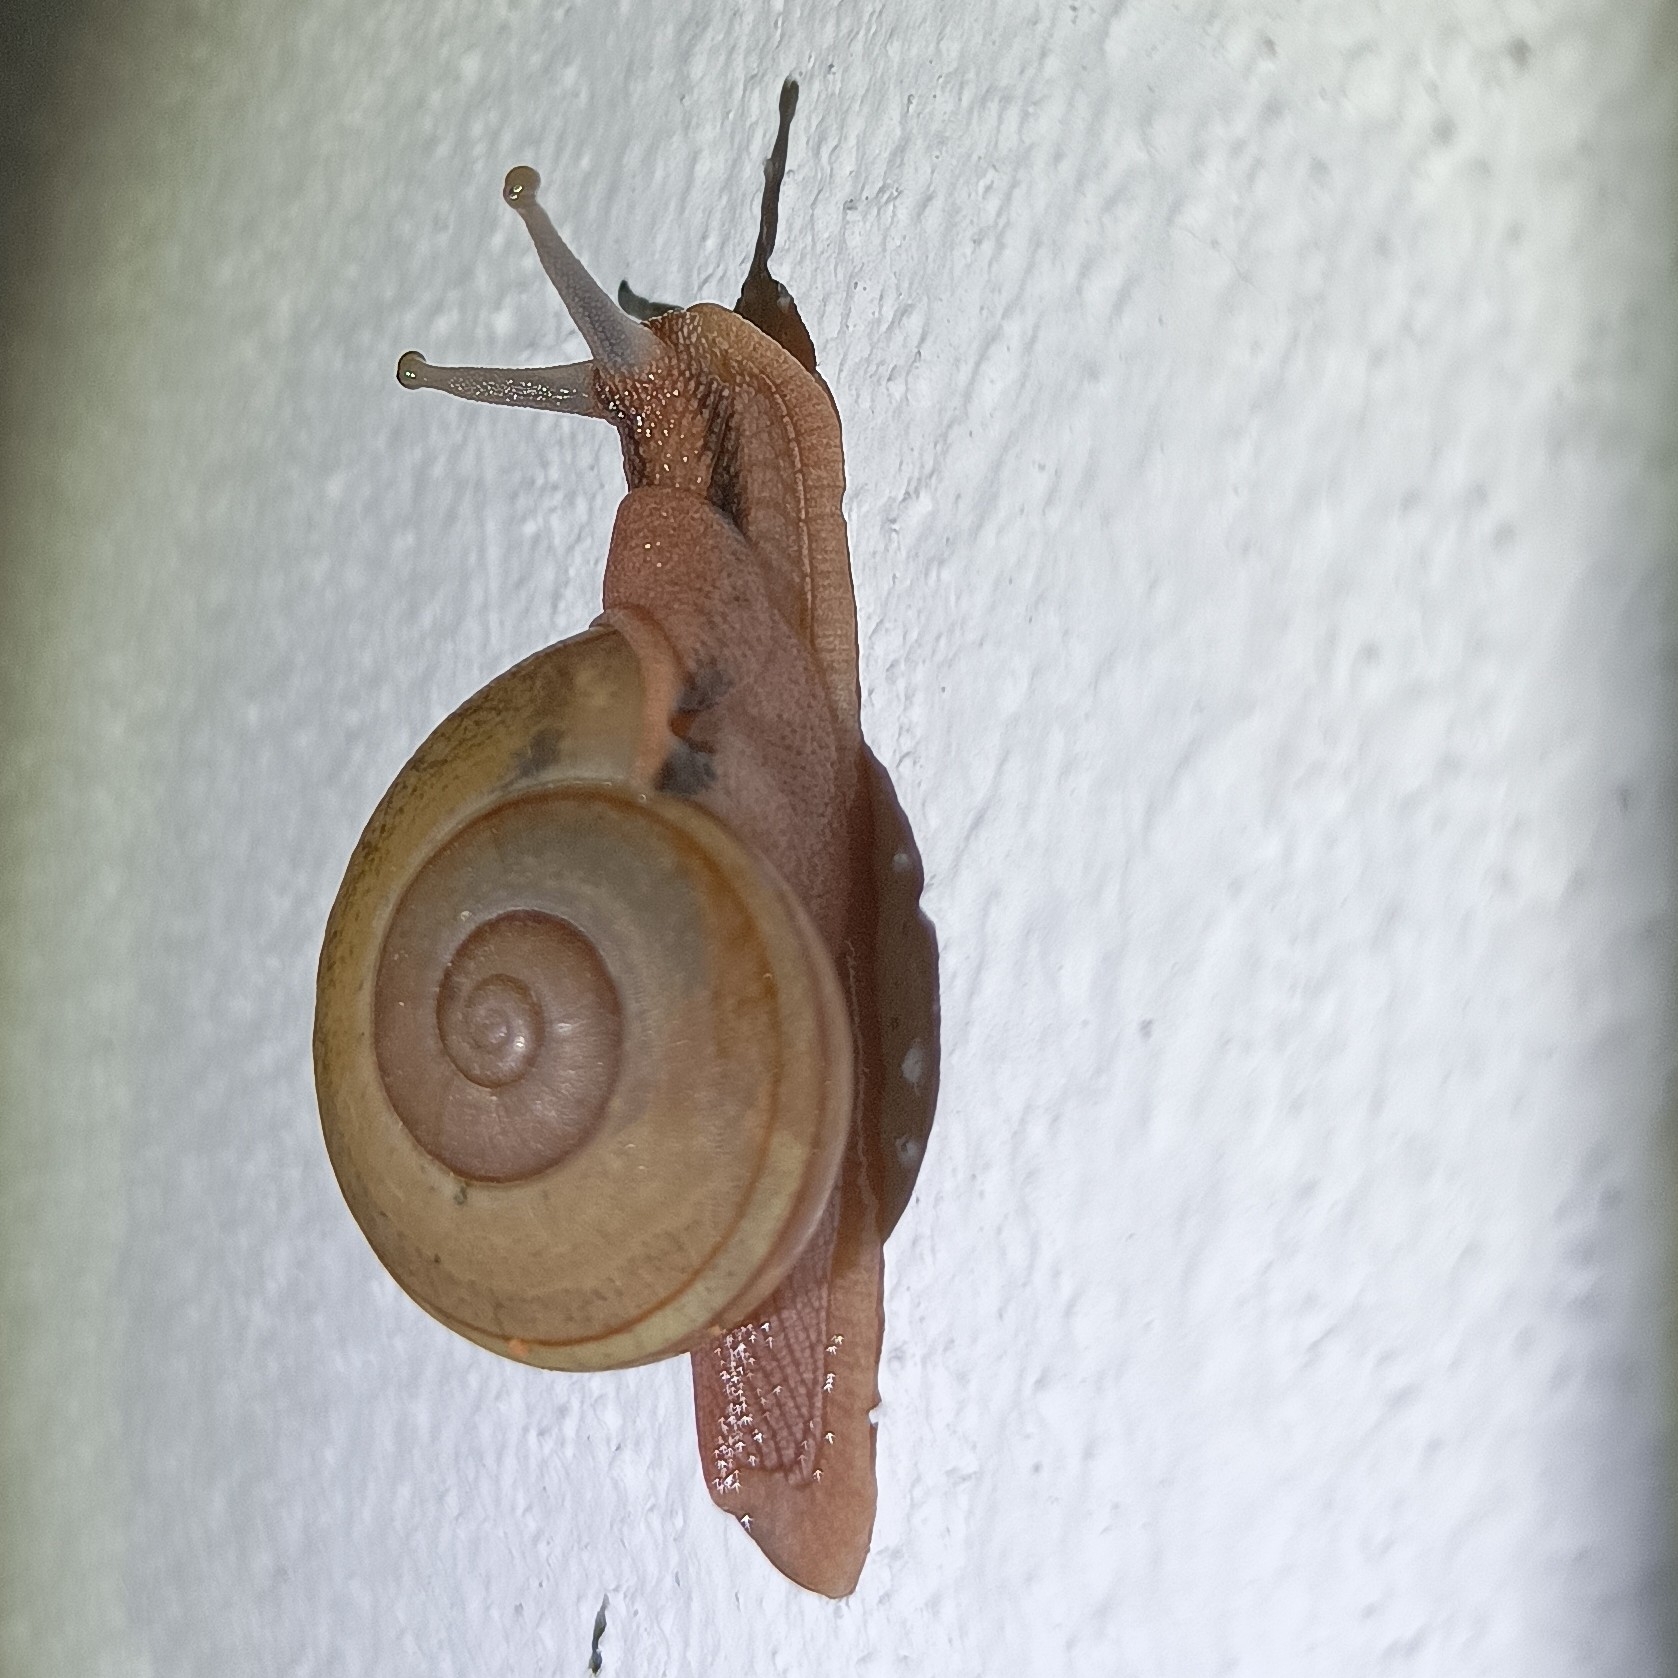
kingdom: Animalia
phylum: Mollusca
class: Gastropoda
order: Stylommatophora
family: Ariophantidae
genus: Ariophanta
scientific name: Ariophanta exilis
